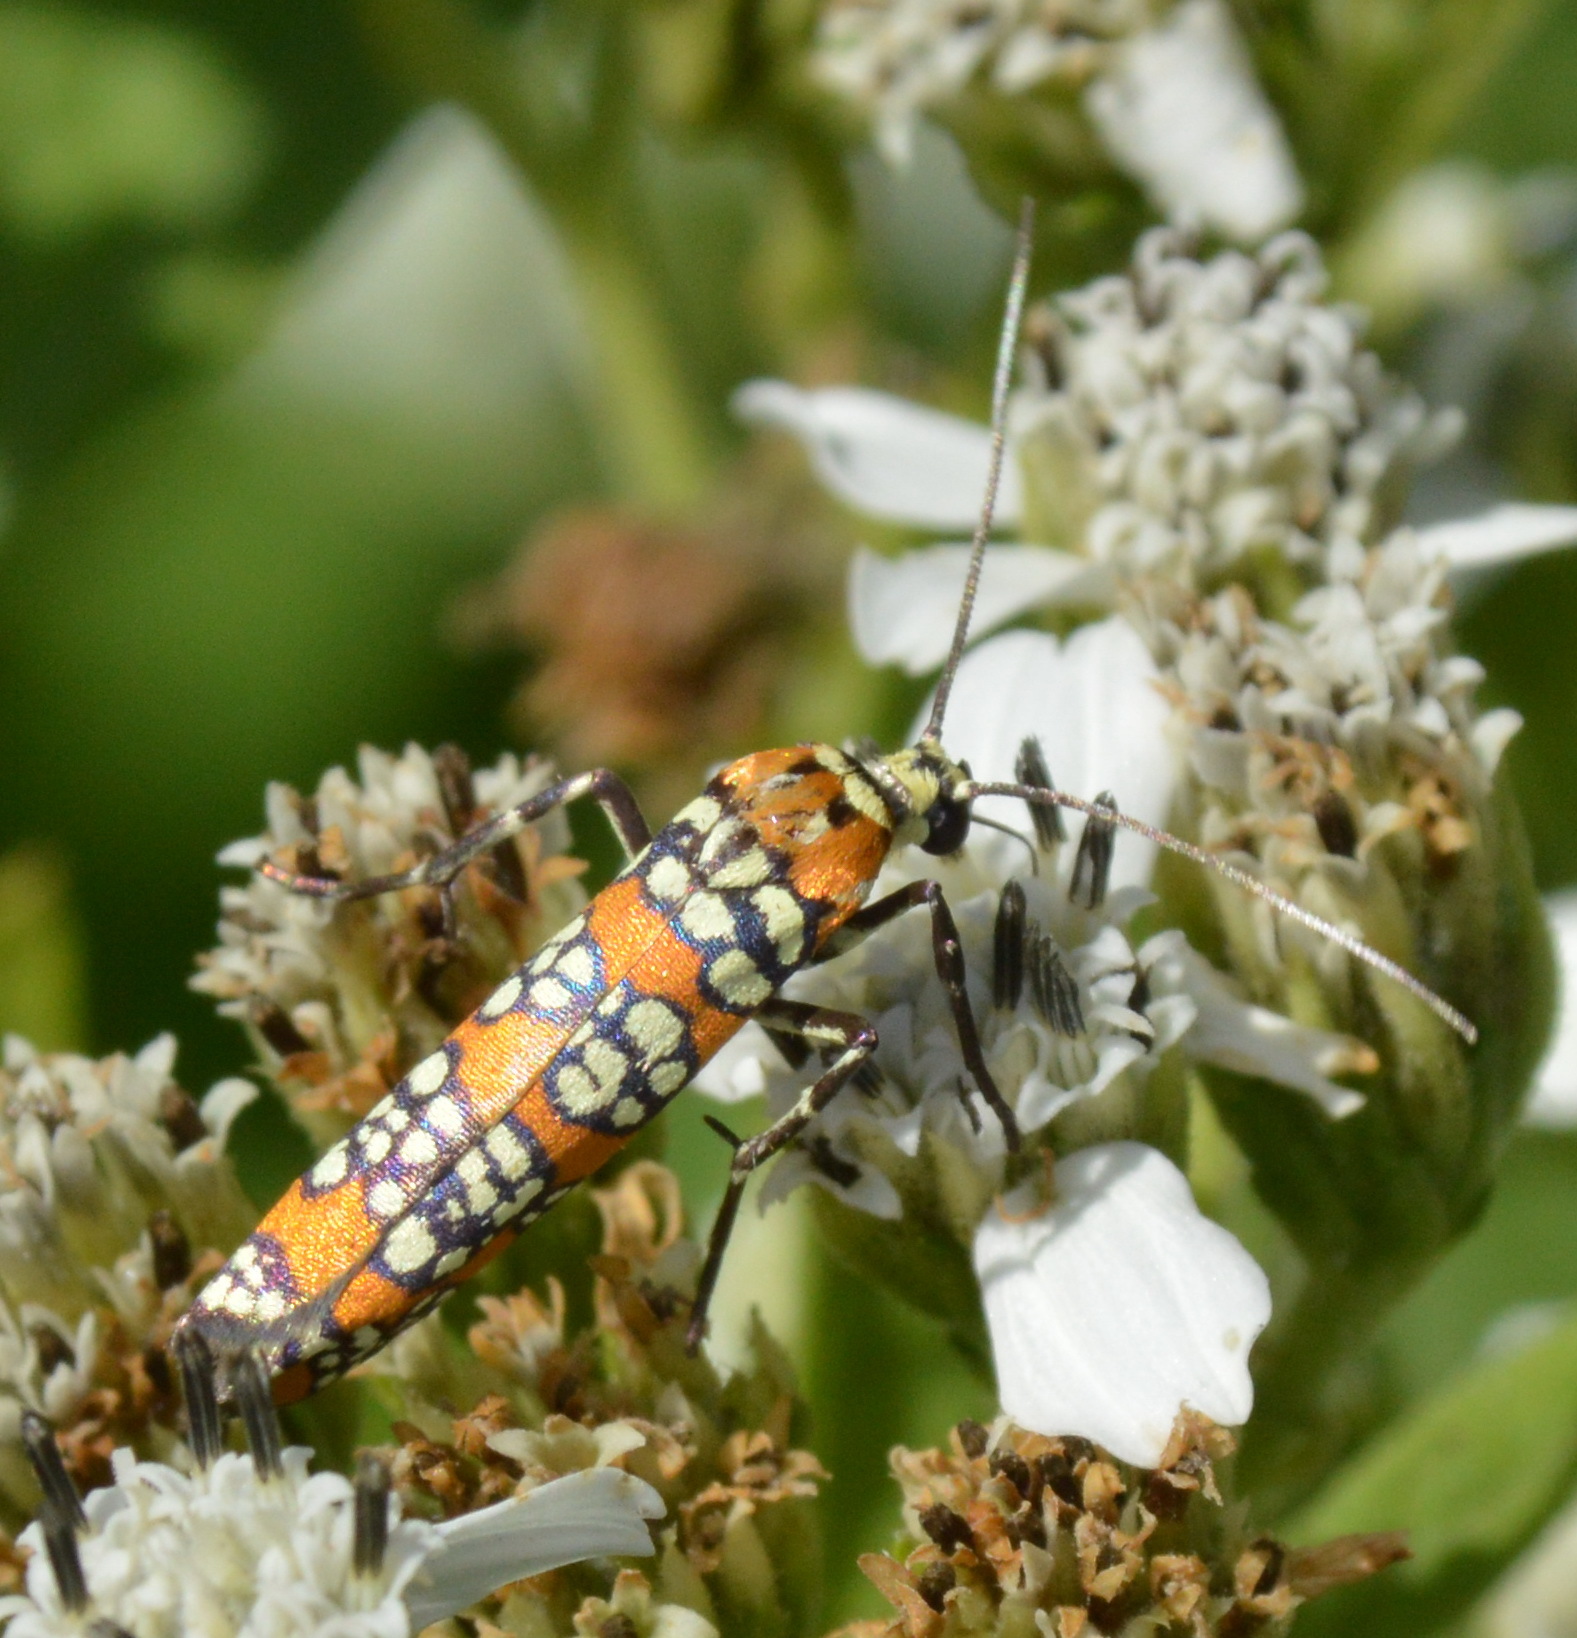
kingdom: Animalia
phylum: Arthropoda
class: Insecta
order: Lepidoptera
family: Attevidae
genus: Atteva
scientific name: Atteva punctella
